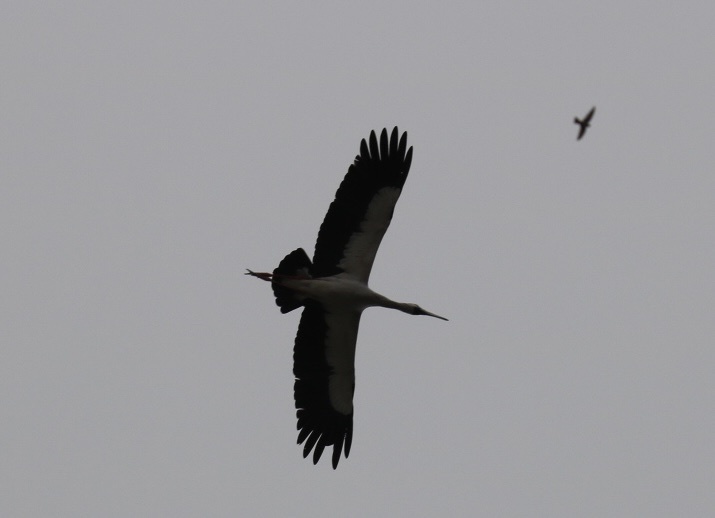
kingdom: Animalia
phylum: Chordata
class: Aves
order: Ciconiiformes
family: Ciconiidae
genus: Anastomus
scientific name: Anastomus oscitans
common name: Asian openbill
